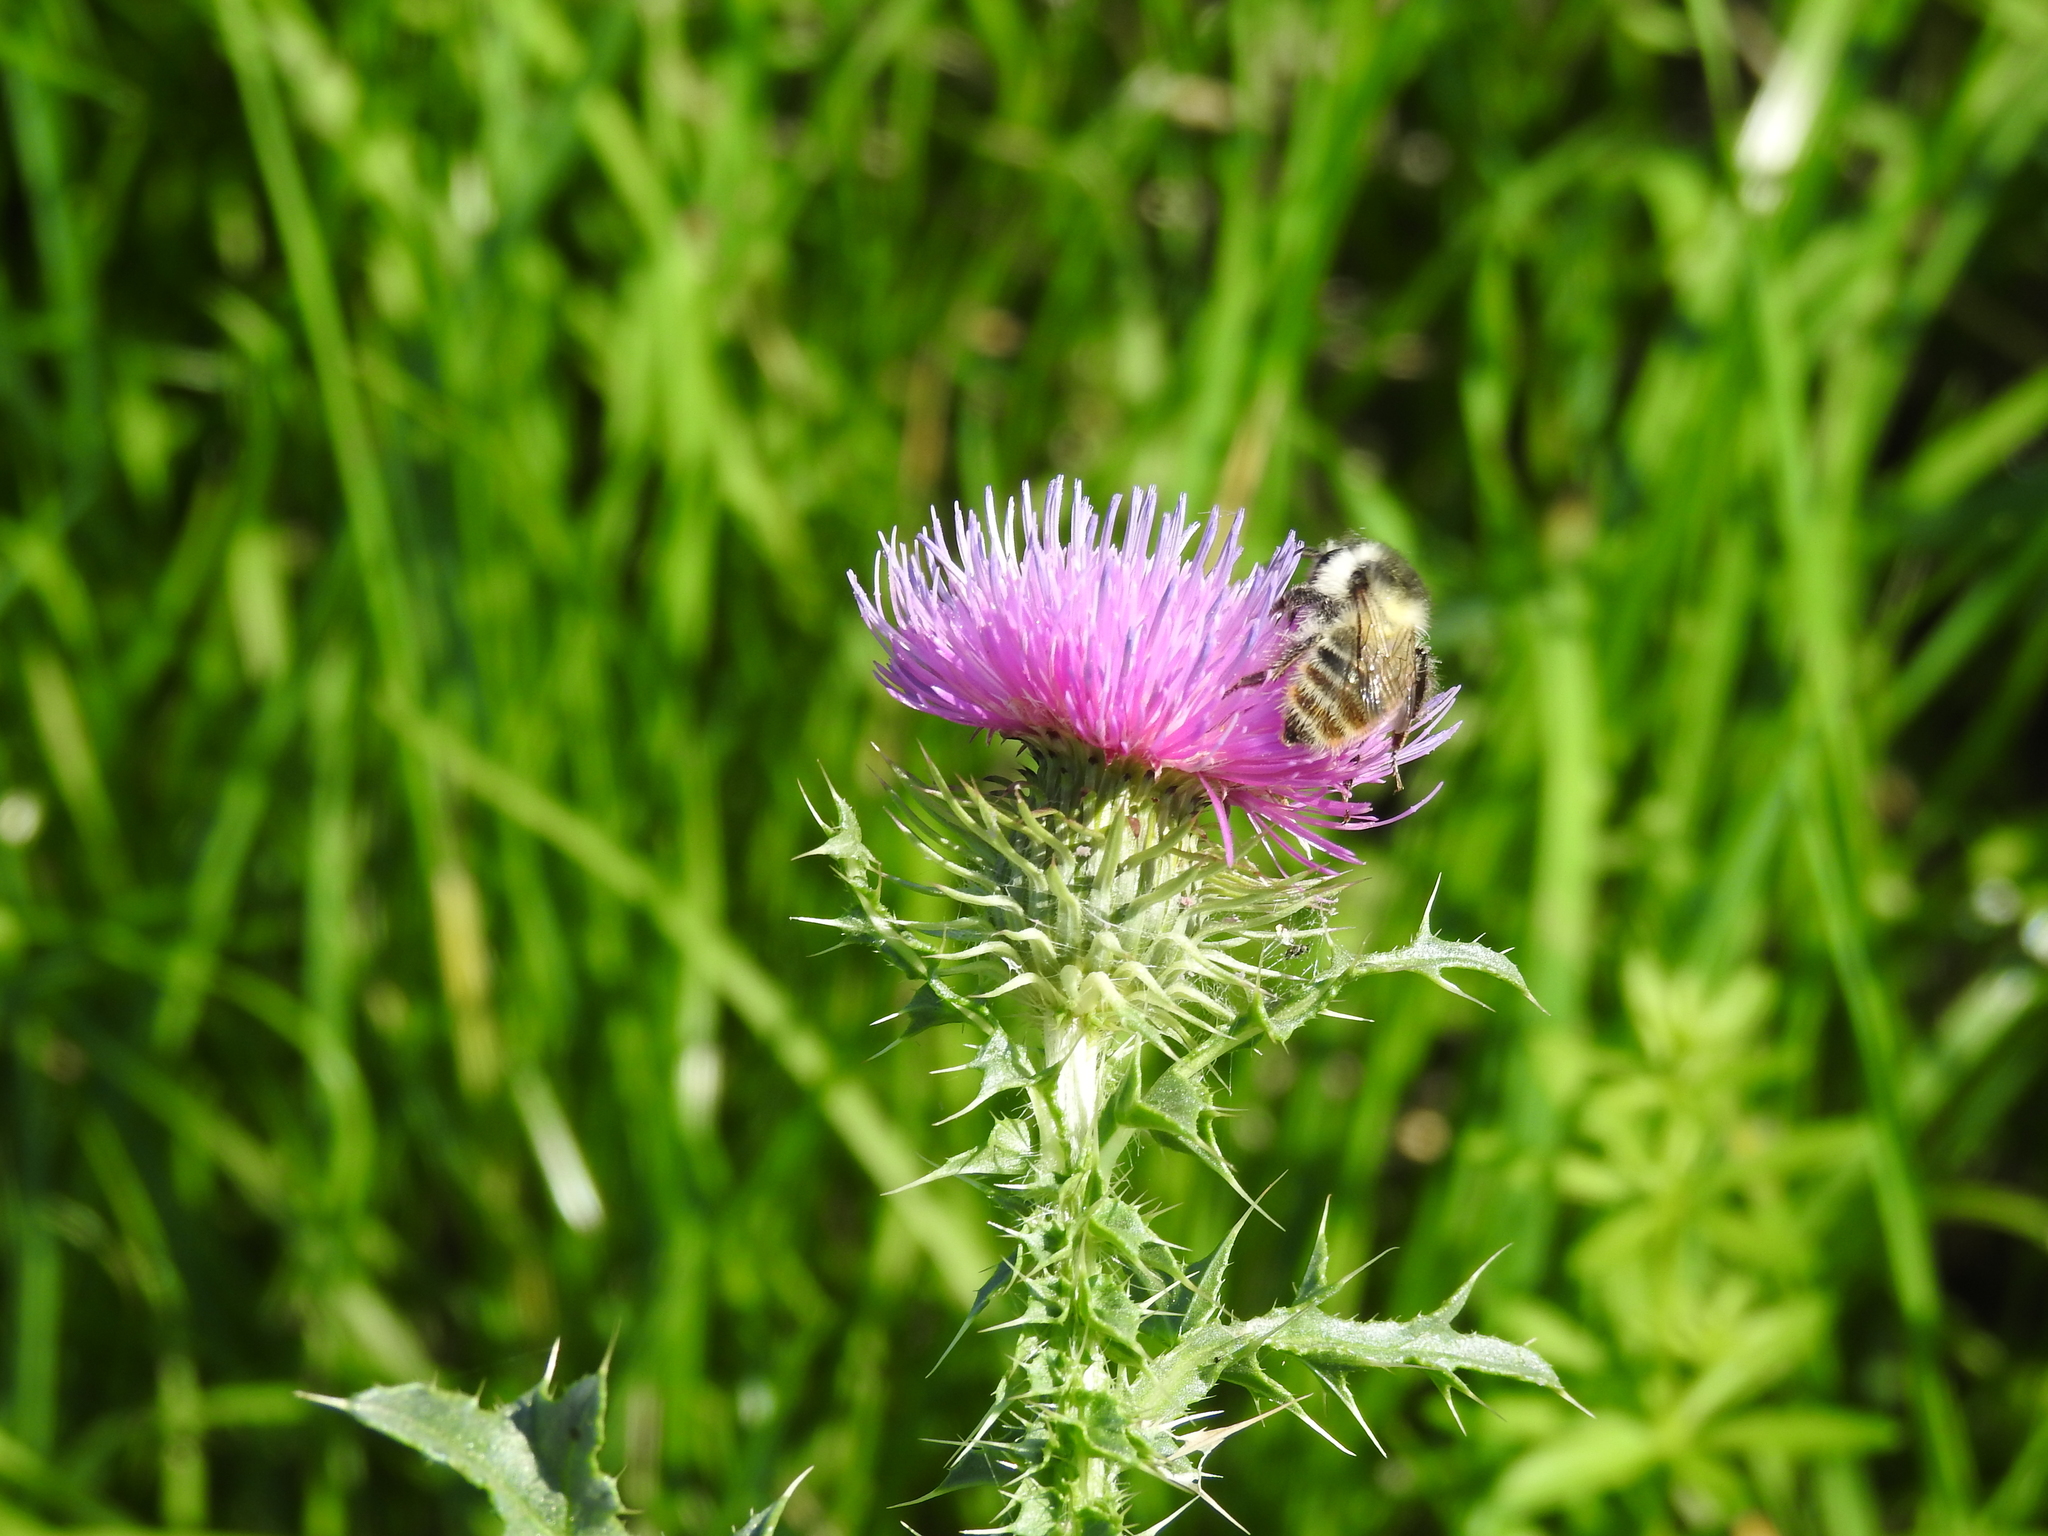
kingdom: Animalia
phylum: Arthropoda
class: Insecta
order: Hymenoptera
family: Apidae
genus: Bombus
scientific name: Bombus sylvarum
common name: Shrill carder bee
